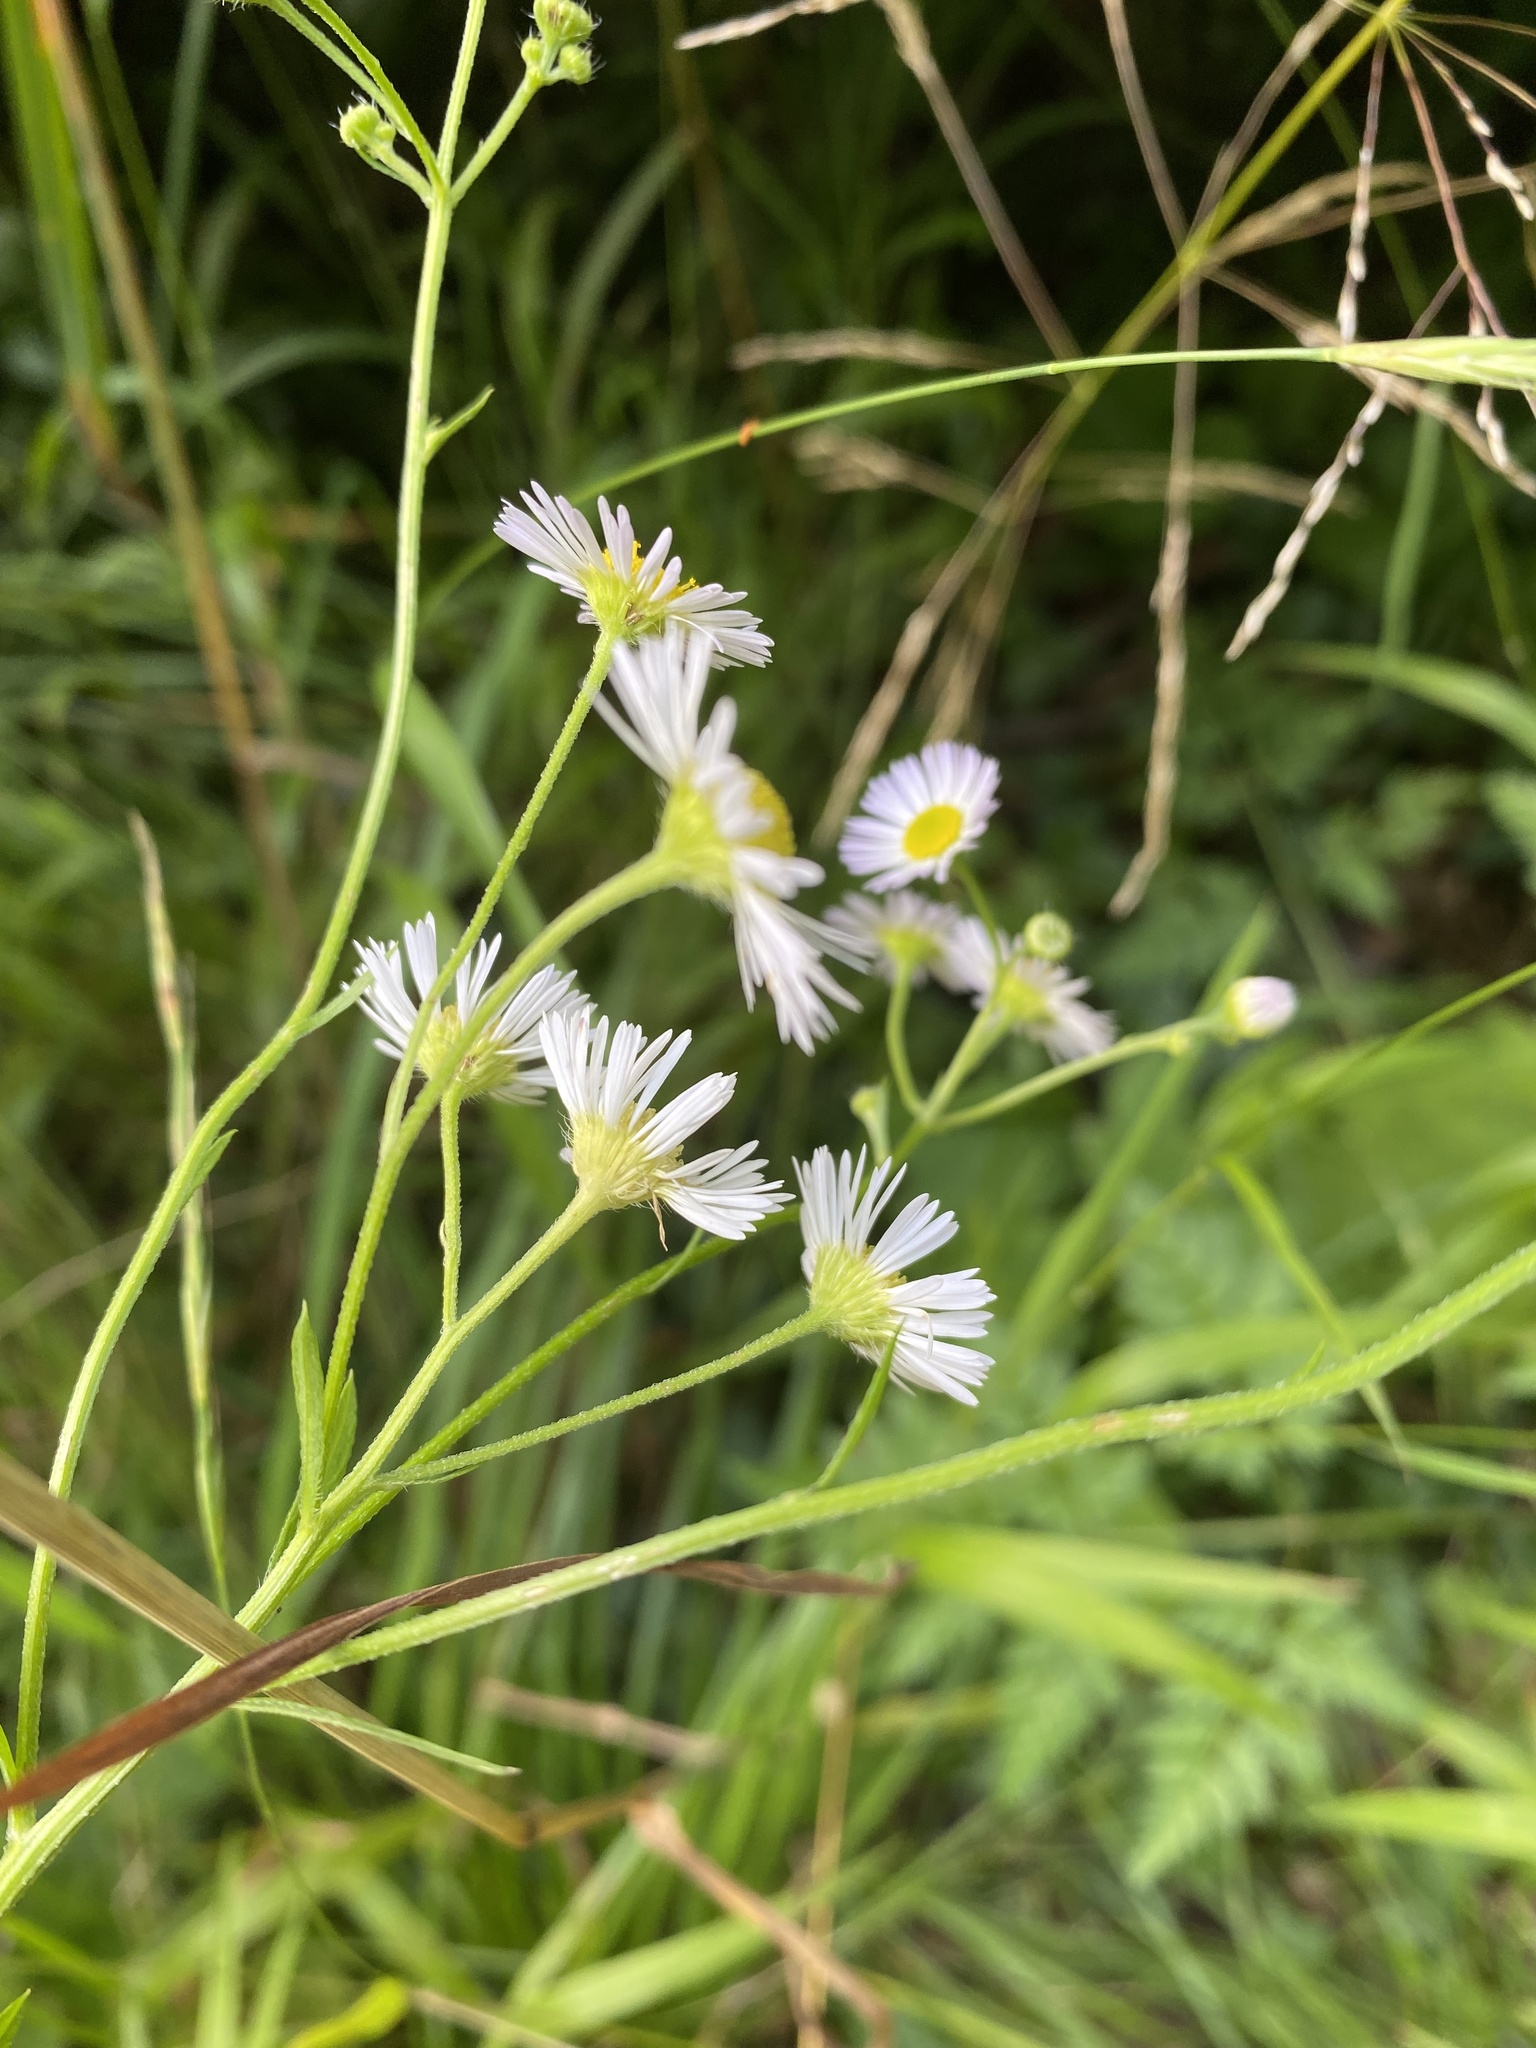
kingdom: Plantae
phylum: Tracheophyta
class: Magnoliopsida
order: Asterales
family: Asteraceae
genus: Erigeron
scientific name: Erigeron annuus
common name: Tall fleabane
